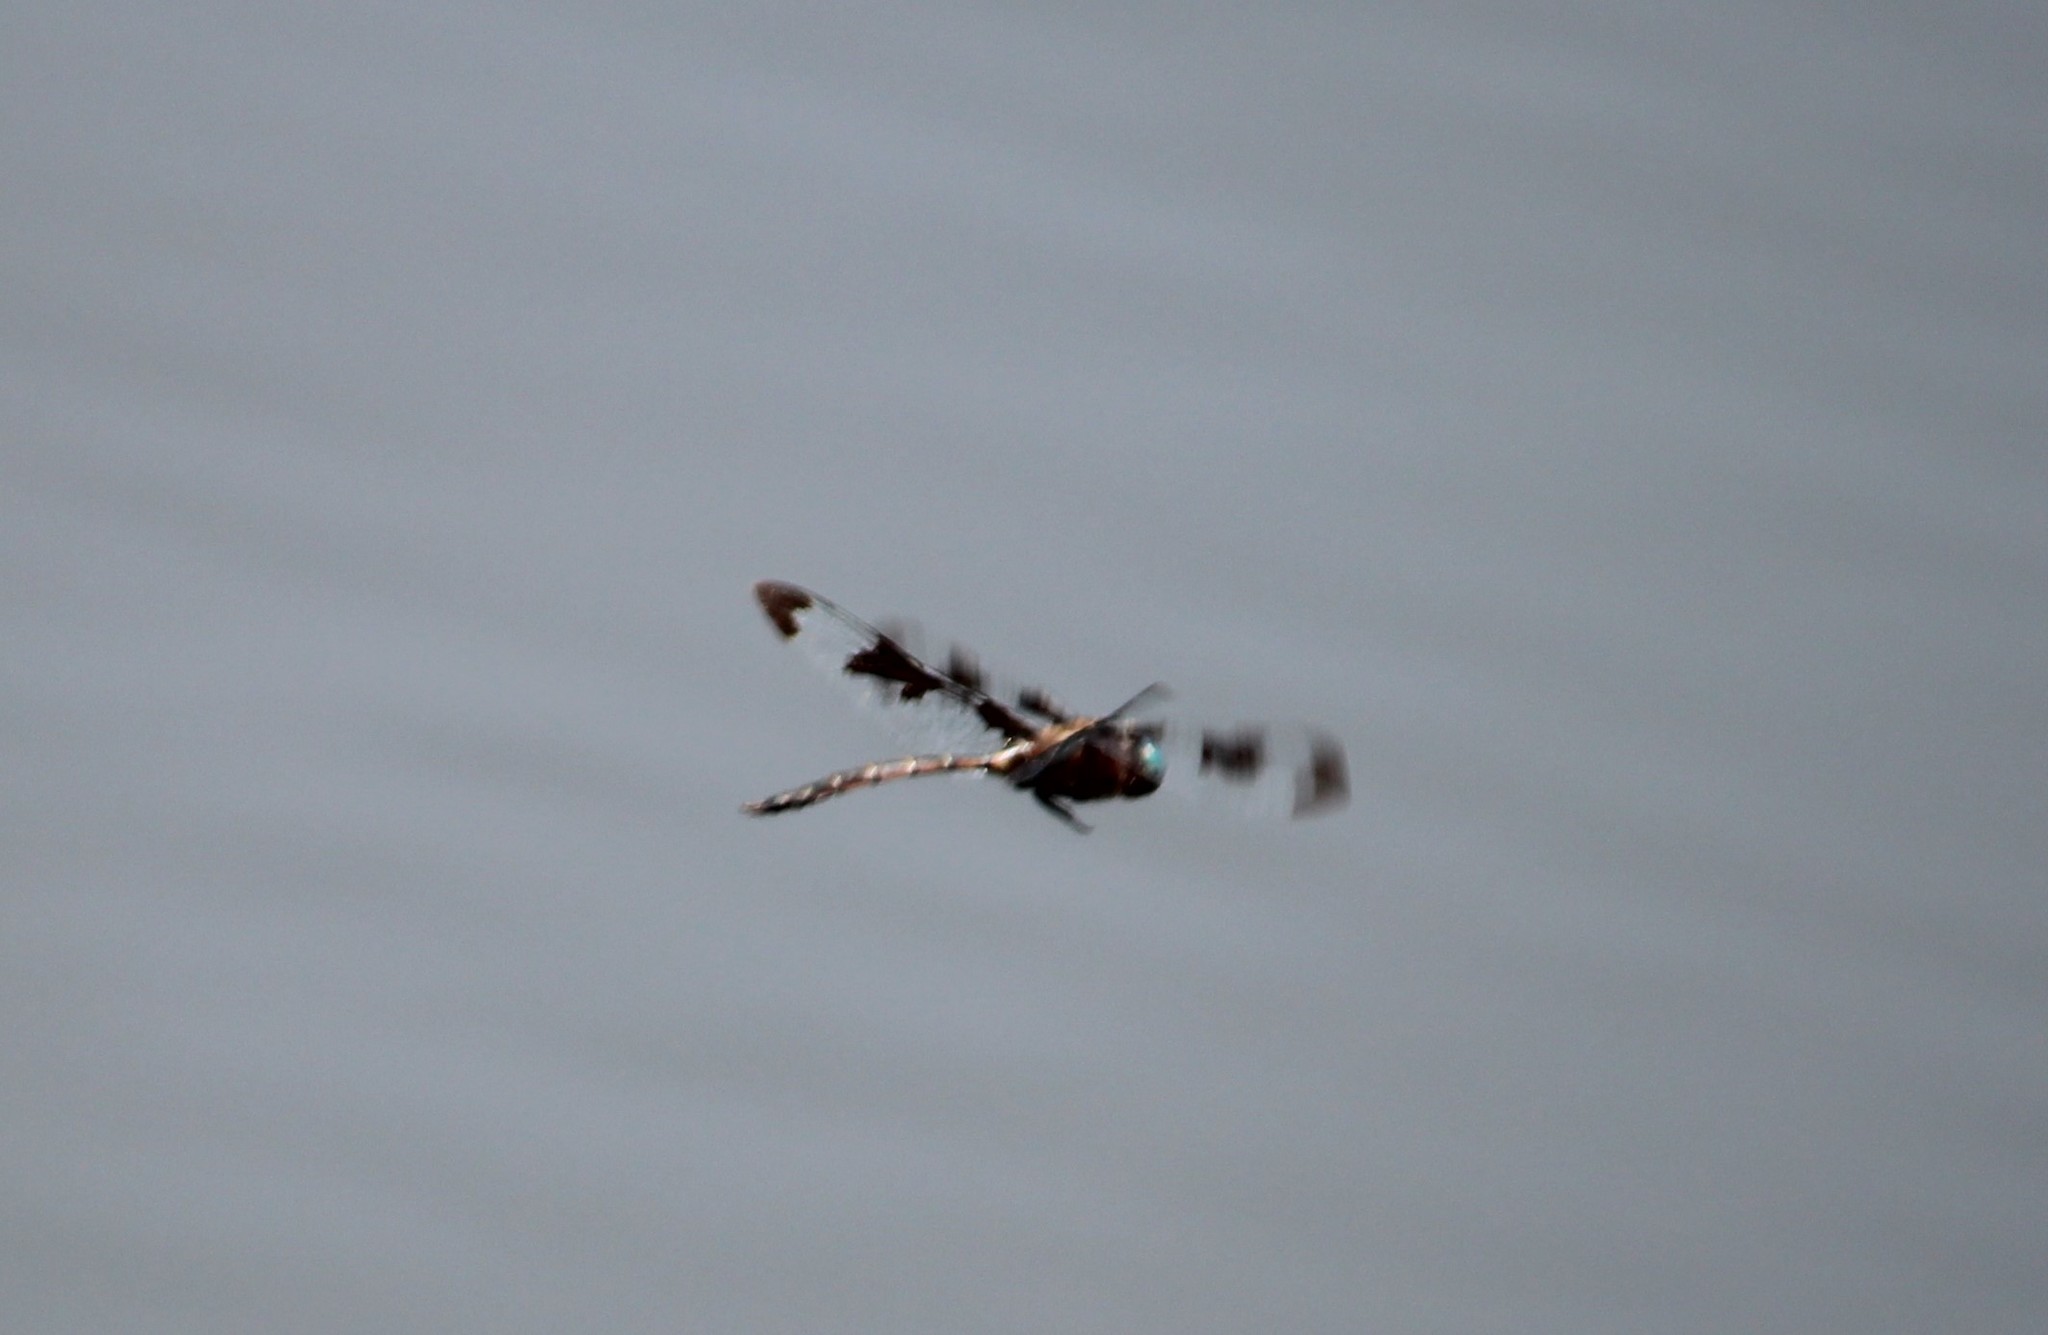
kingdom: Animalia
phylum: Arthropoda
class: Insecta
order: Odonata
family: Corduliidae
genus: Epitheca
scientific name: Epitheca princeps
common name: Prince baskettail
